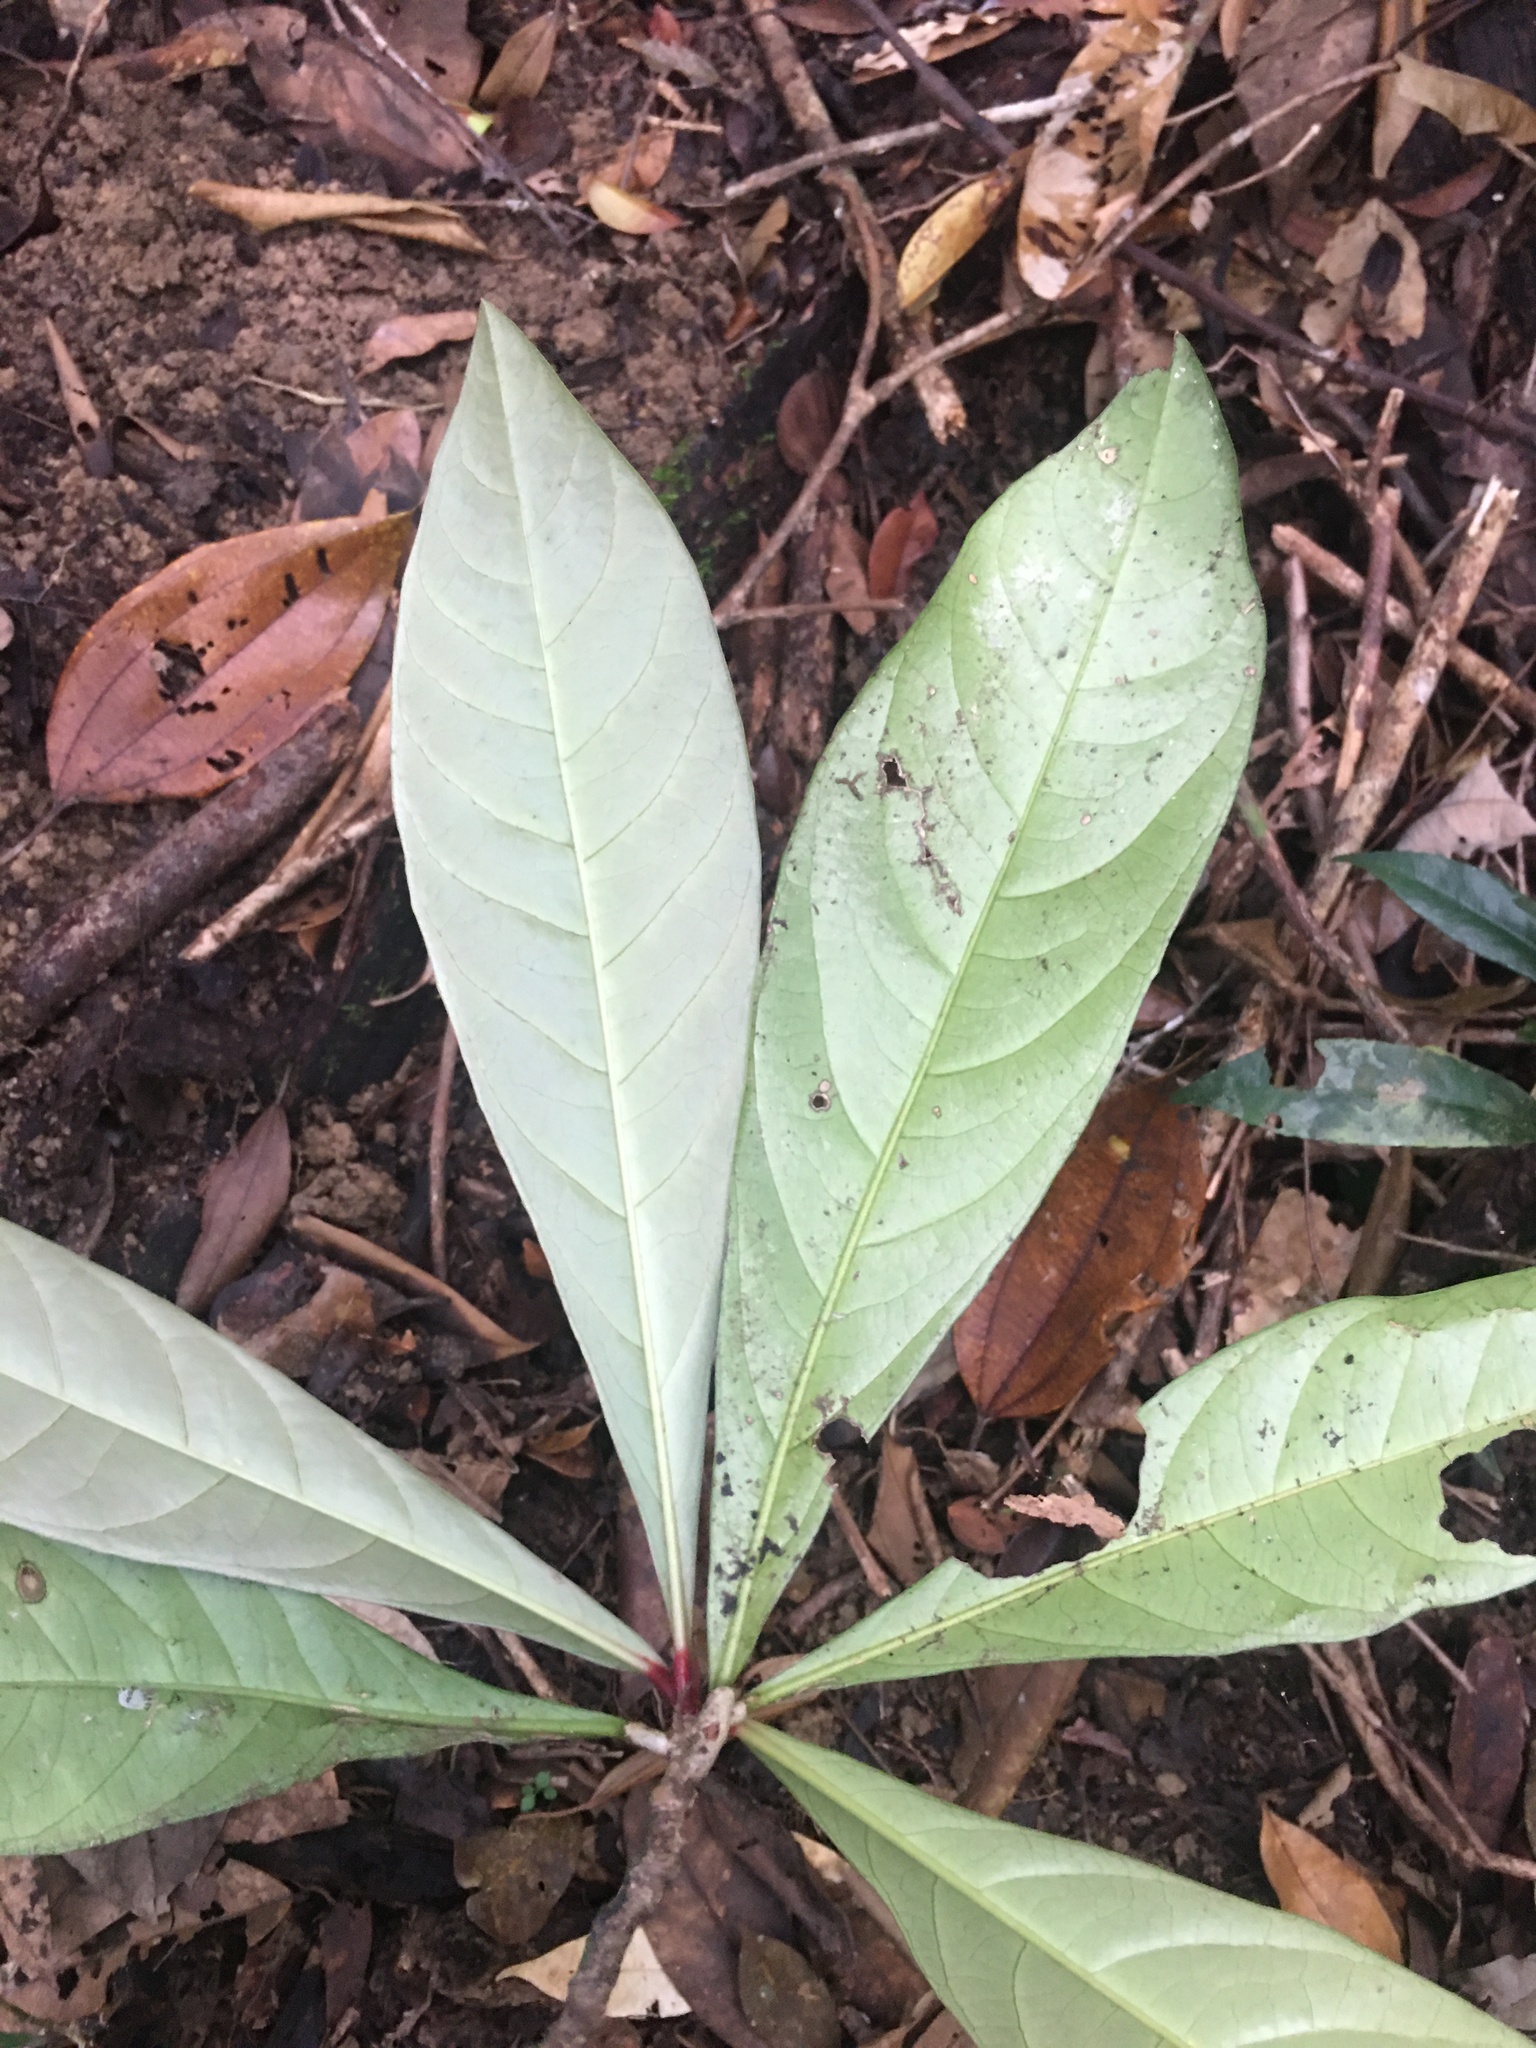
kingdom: Plantae
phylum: Tracheophyta
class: Magnoliopsida
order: Malpighiales
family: Violaceae
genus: Paypayrola
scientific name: Paypayrola blanchetiana
